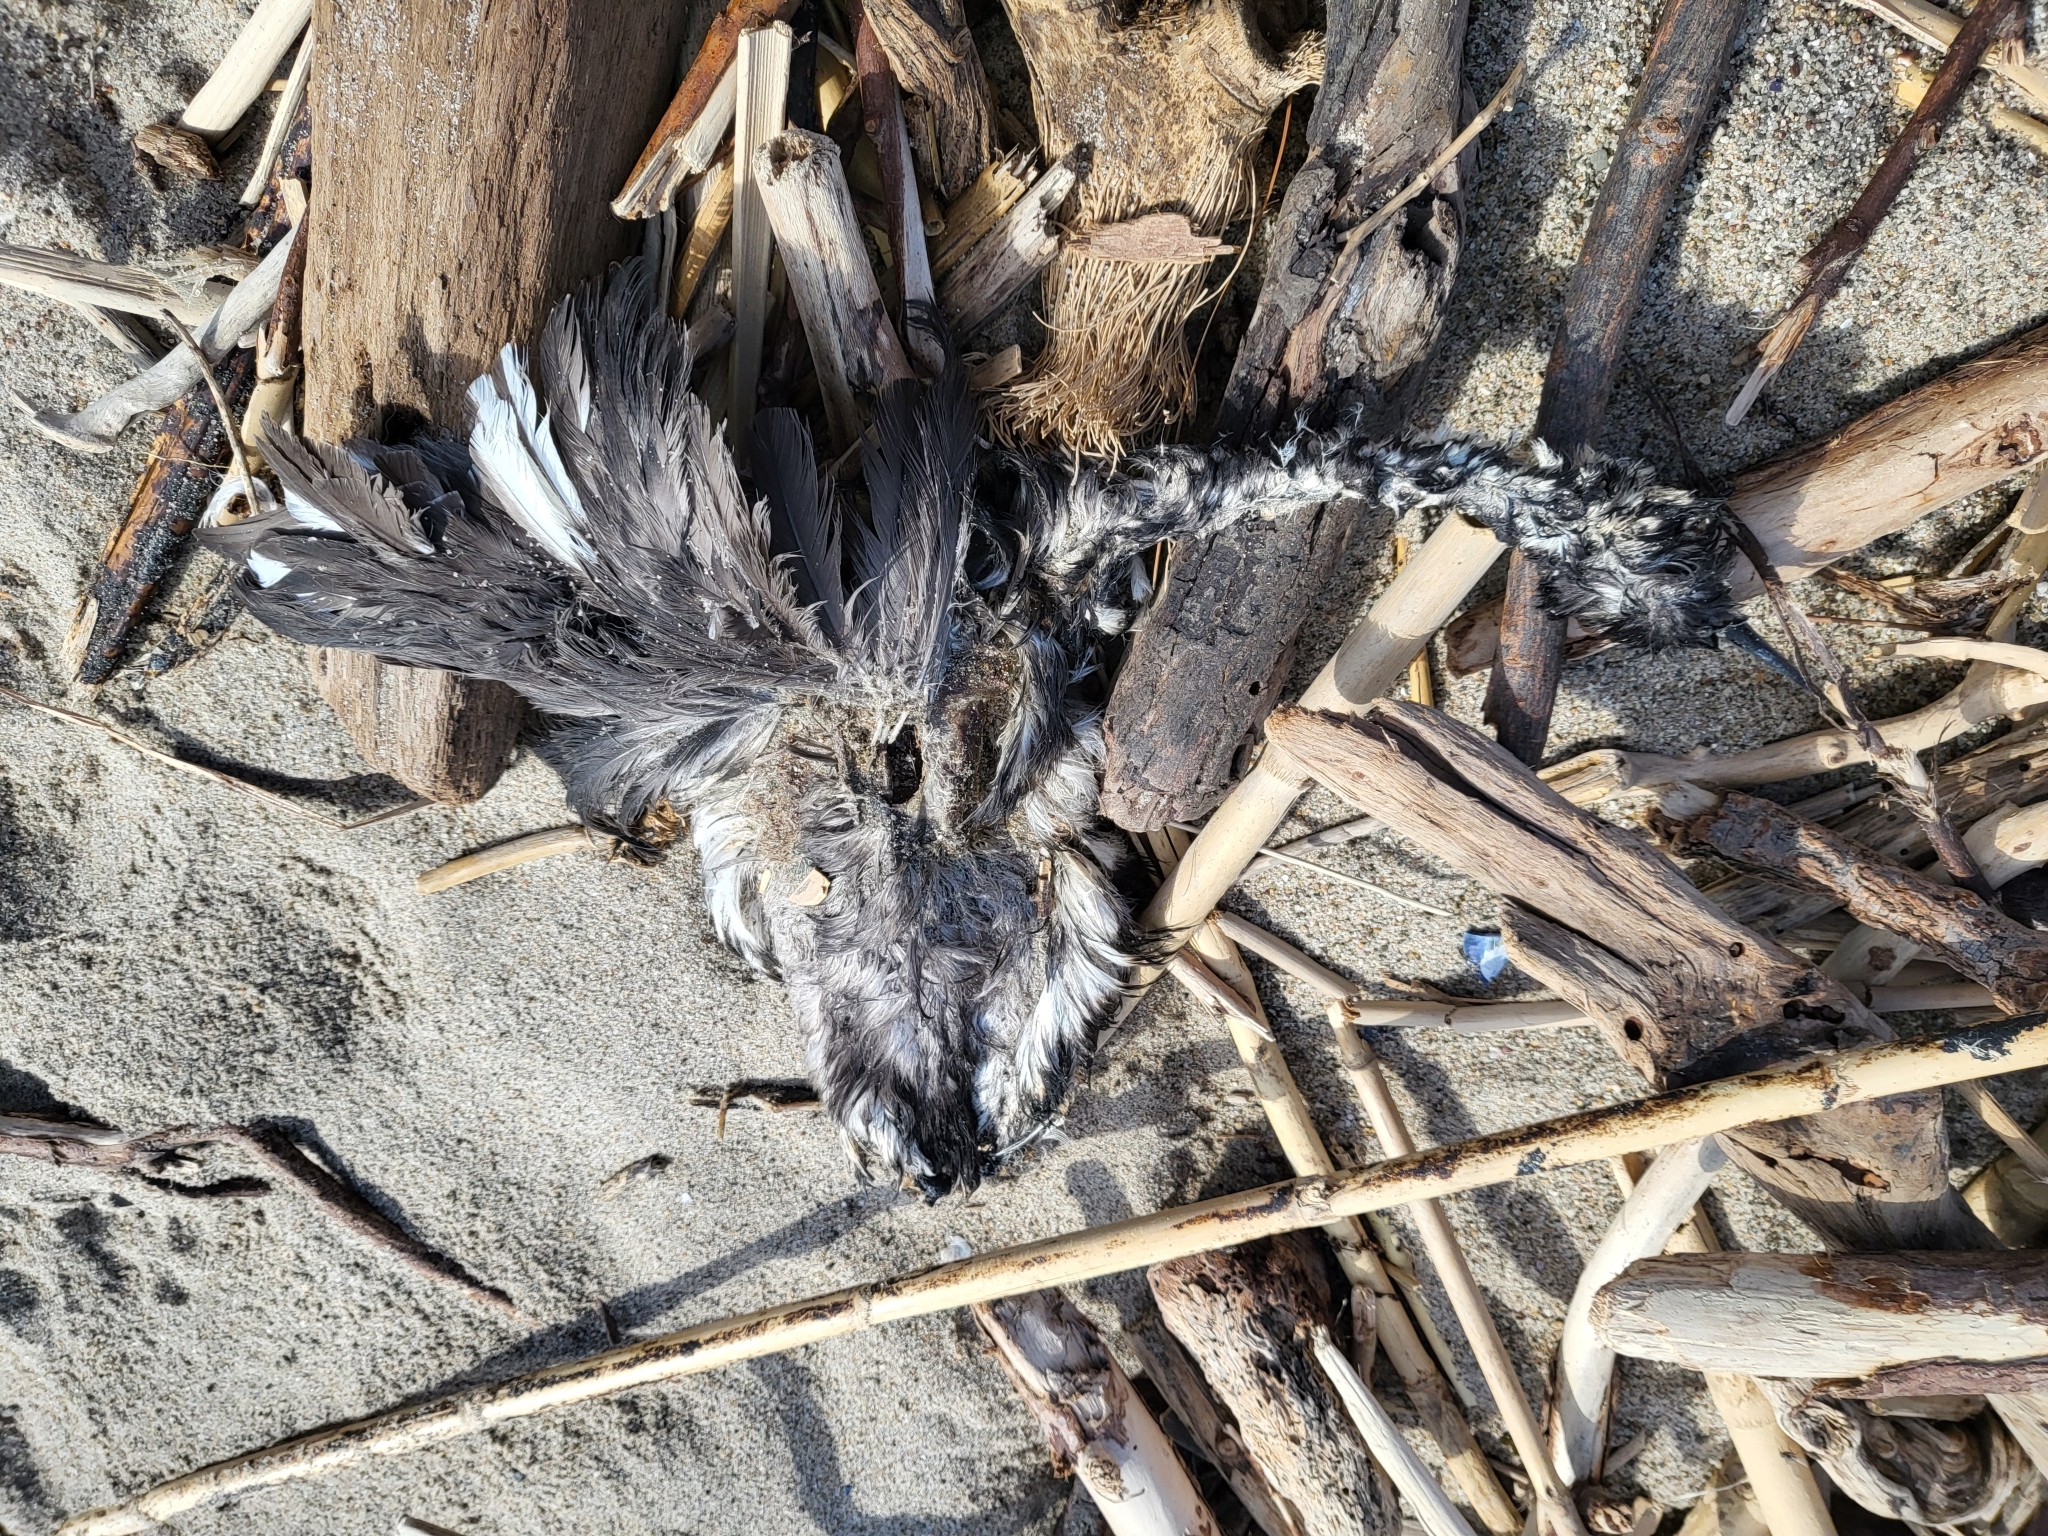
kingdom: Animalia
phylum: Chordata
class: Aves
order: Podicipediformes
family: Podicipedidae
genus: Aechmophorus
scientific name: Aechmophorus occidentalis
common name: Western grebe
